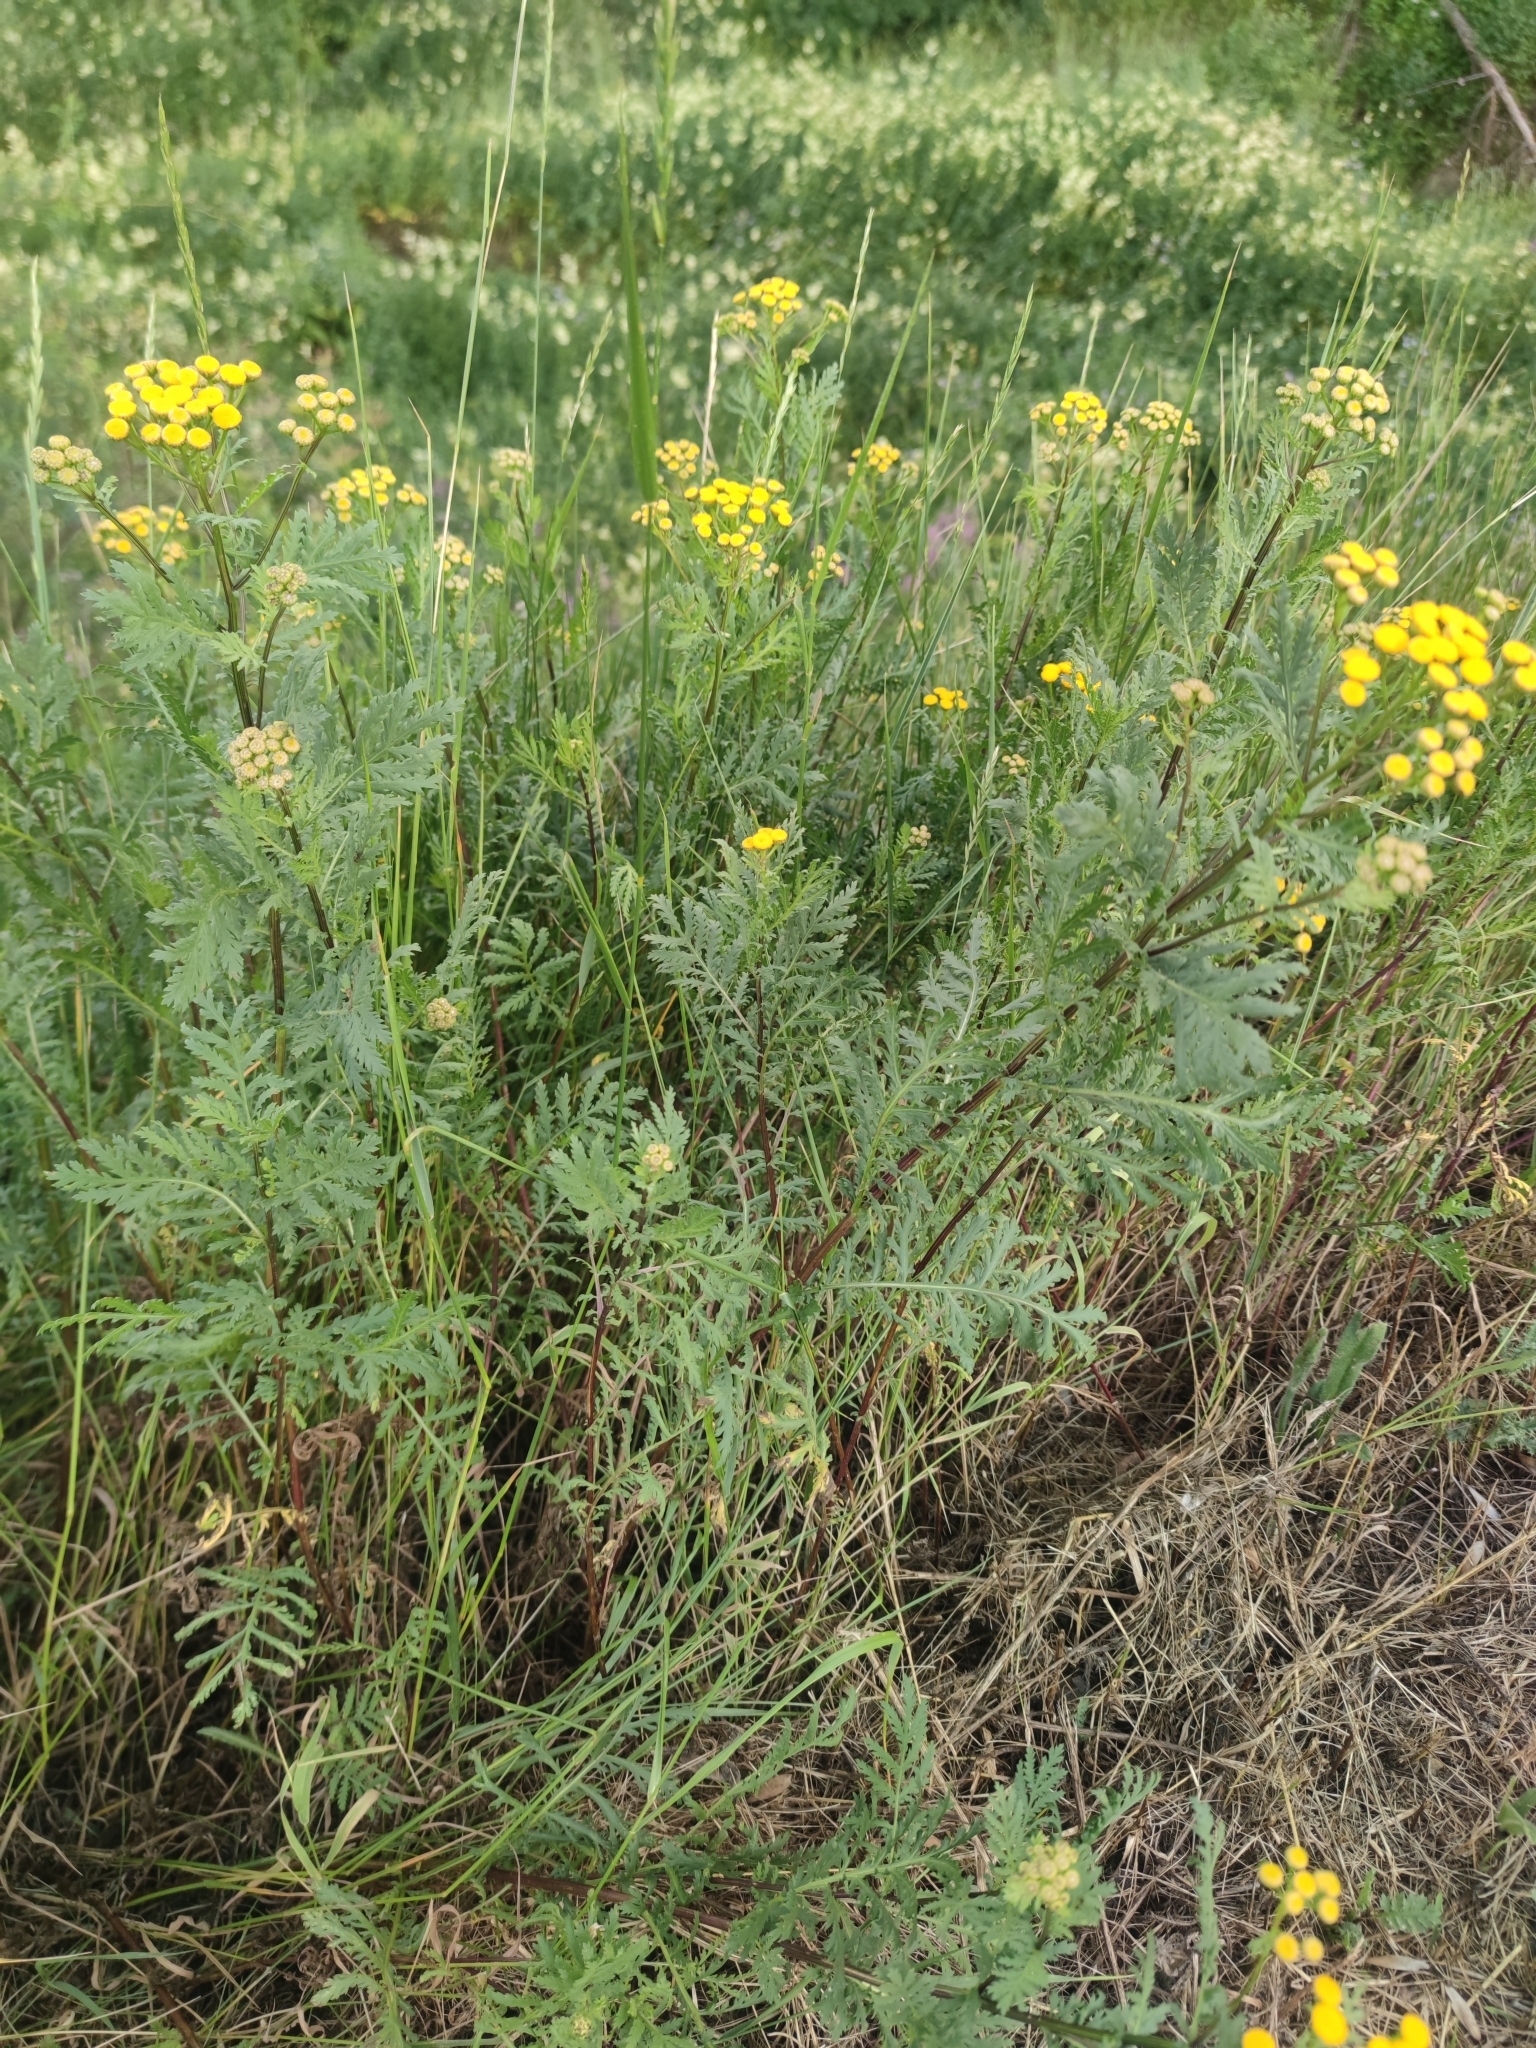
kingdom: Plantae
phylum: Tracheophyta
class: Magnoliopsida
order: Asterales
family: Asteraceae
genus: Tanacetum
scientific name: Tanacetum vulgare
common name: Common tansy
